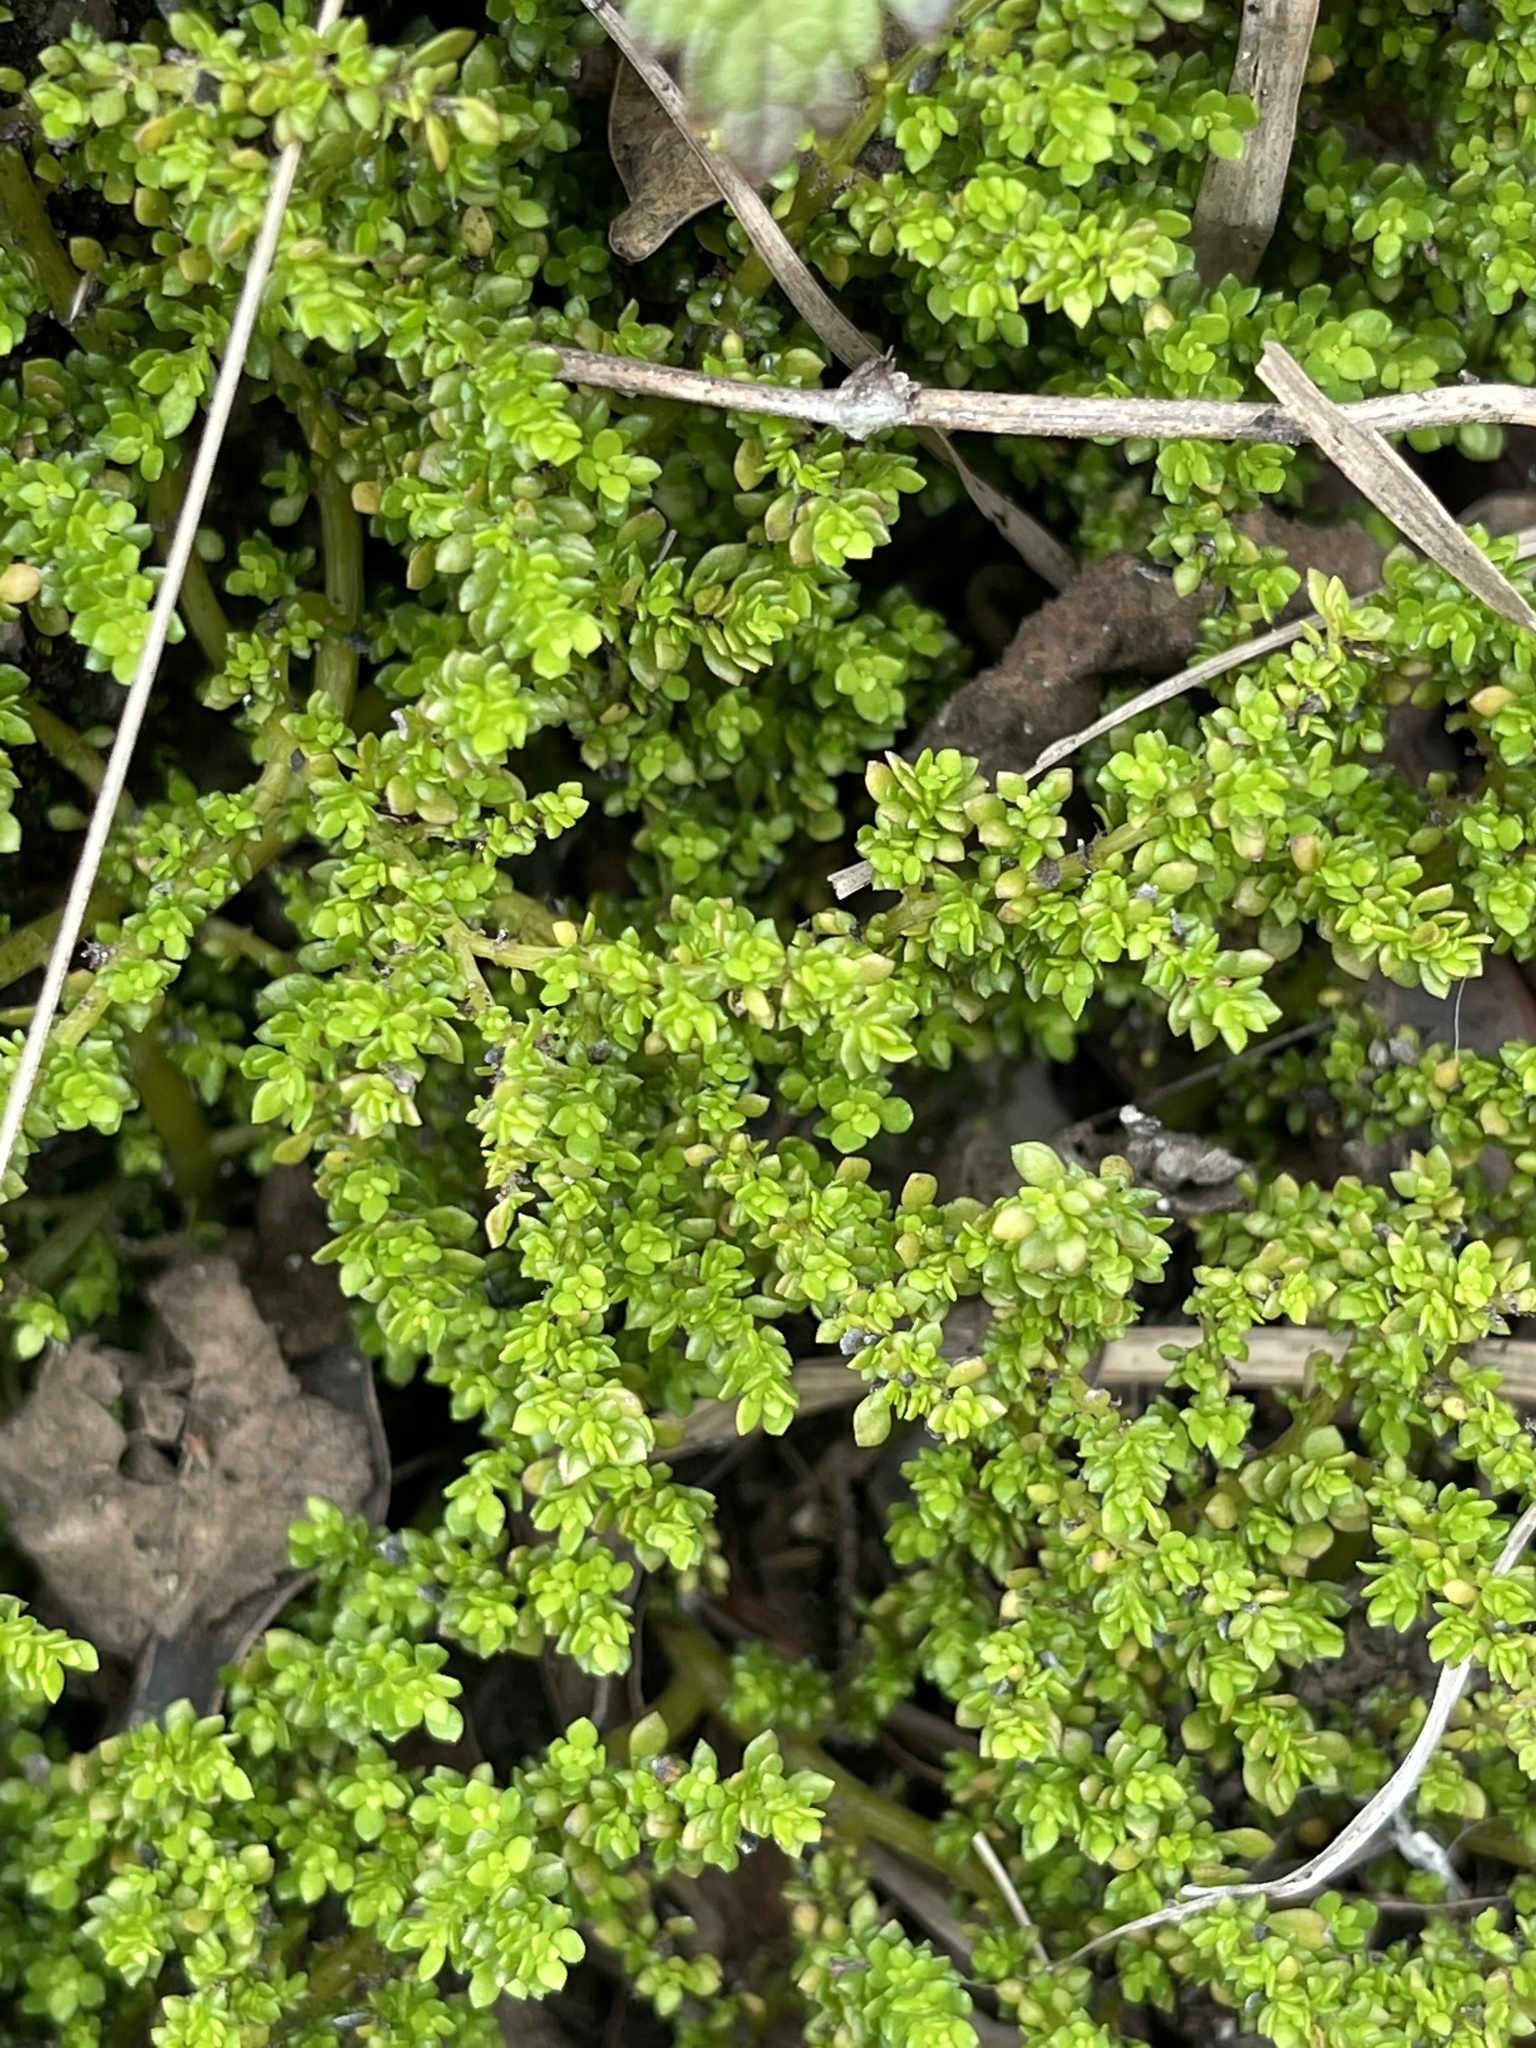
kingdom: Plantae
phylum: Tracheophyta
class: Magnoliopsida
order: Rosales
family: Urticaceae
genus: Pilea
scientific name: Pilea microphylla
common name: Artillery-plant
